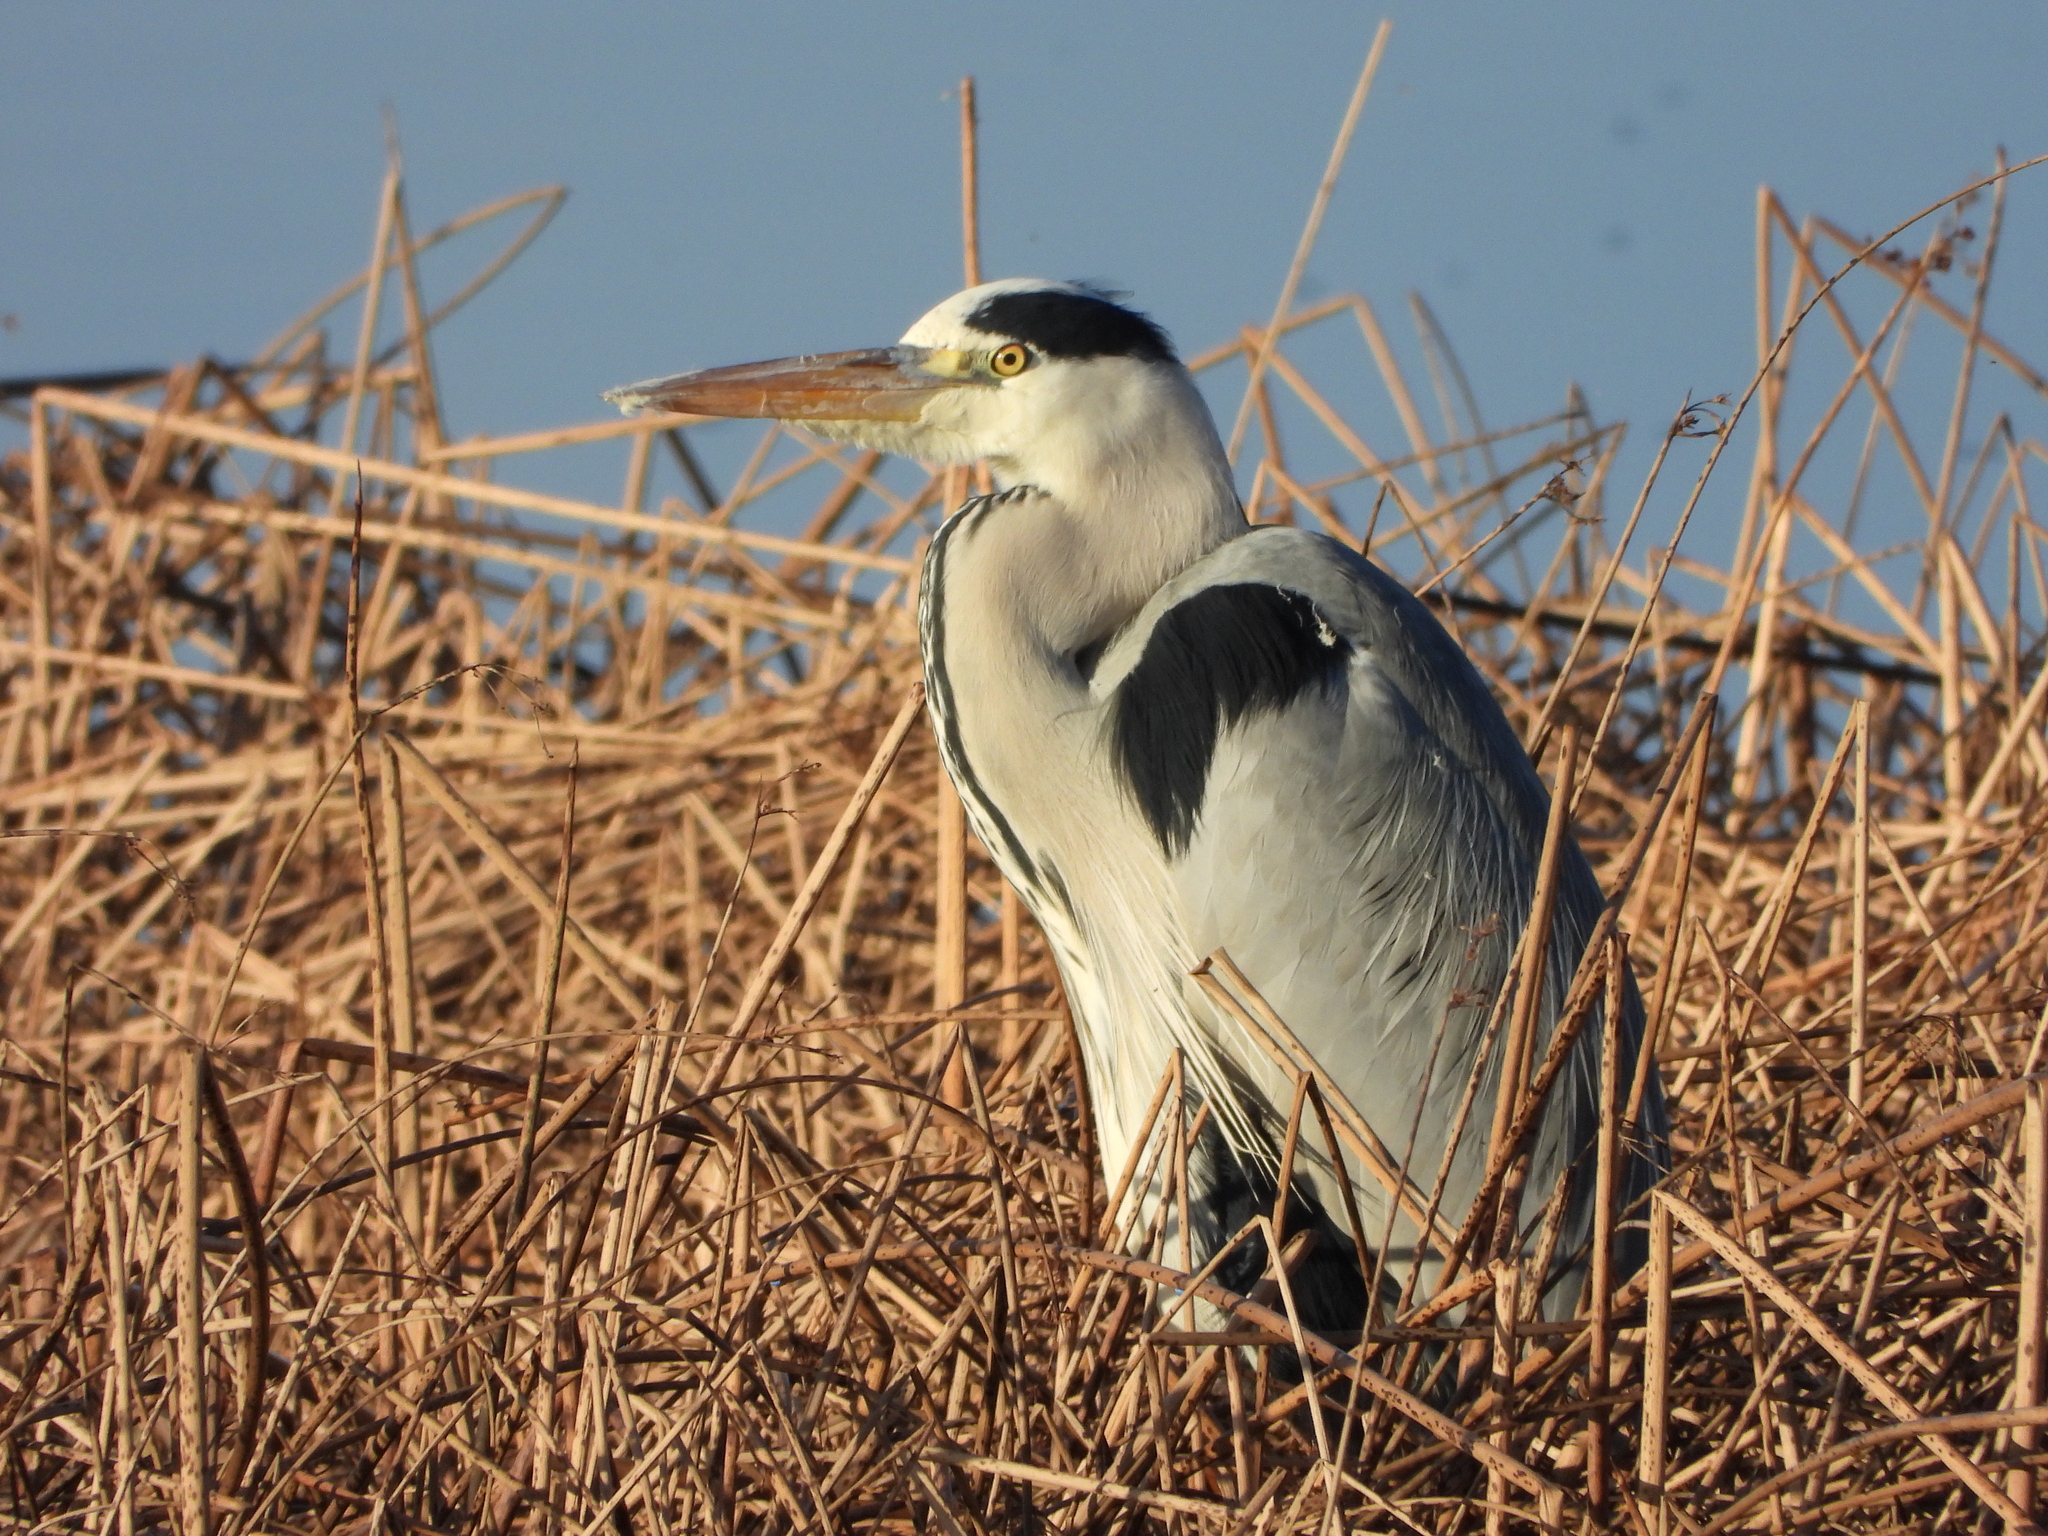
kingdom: Animalia
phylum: Chordata
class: Aves
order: Pelecaniformes
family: Ardeidae
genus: Ardea
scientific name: Ardea cinerea
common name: Grey heron
